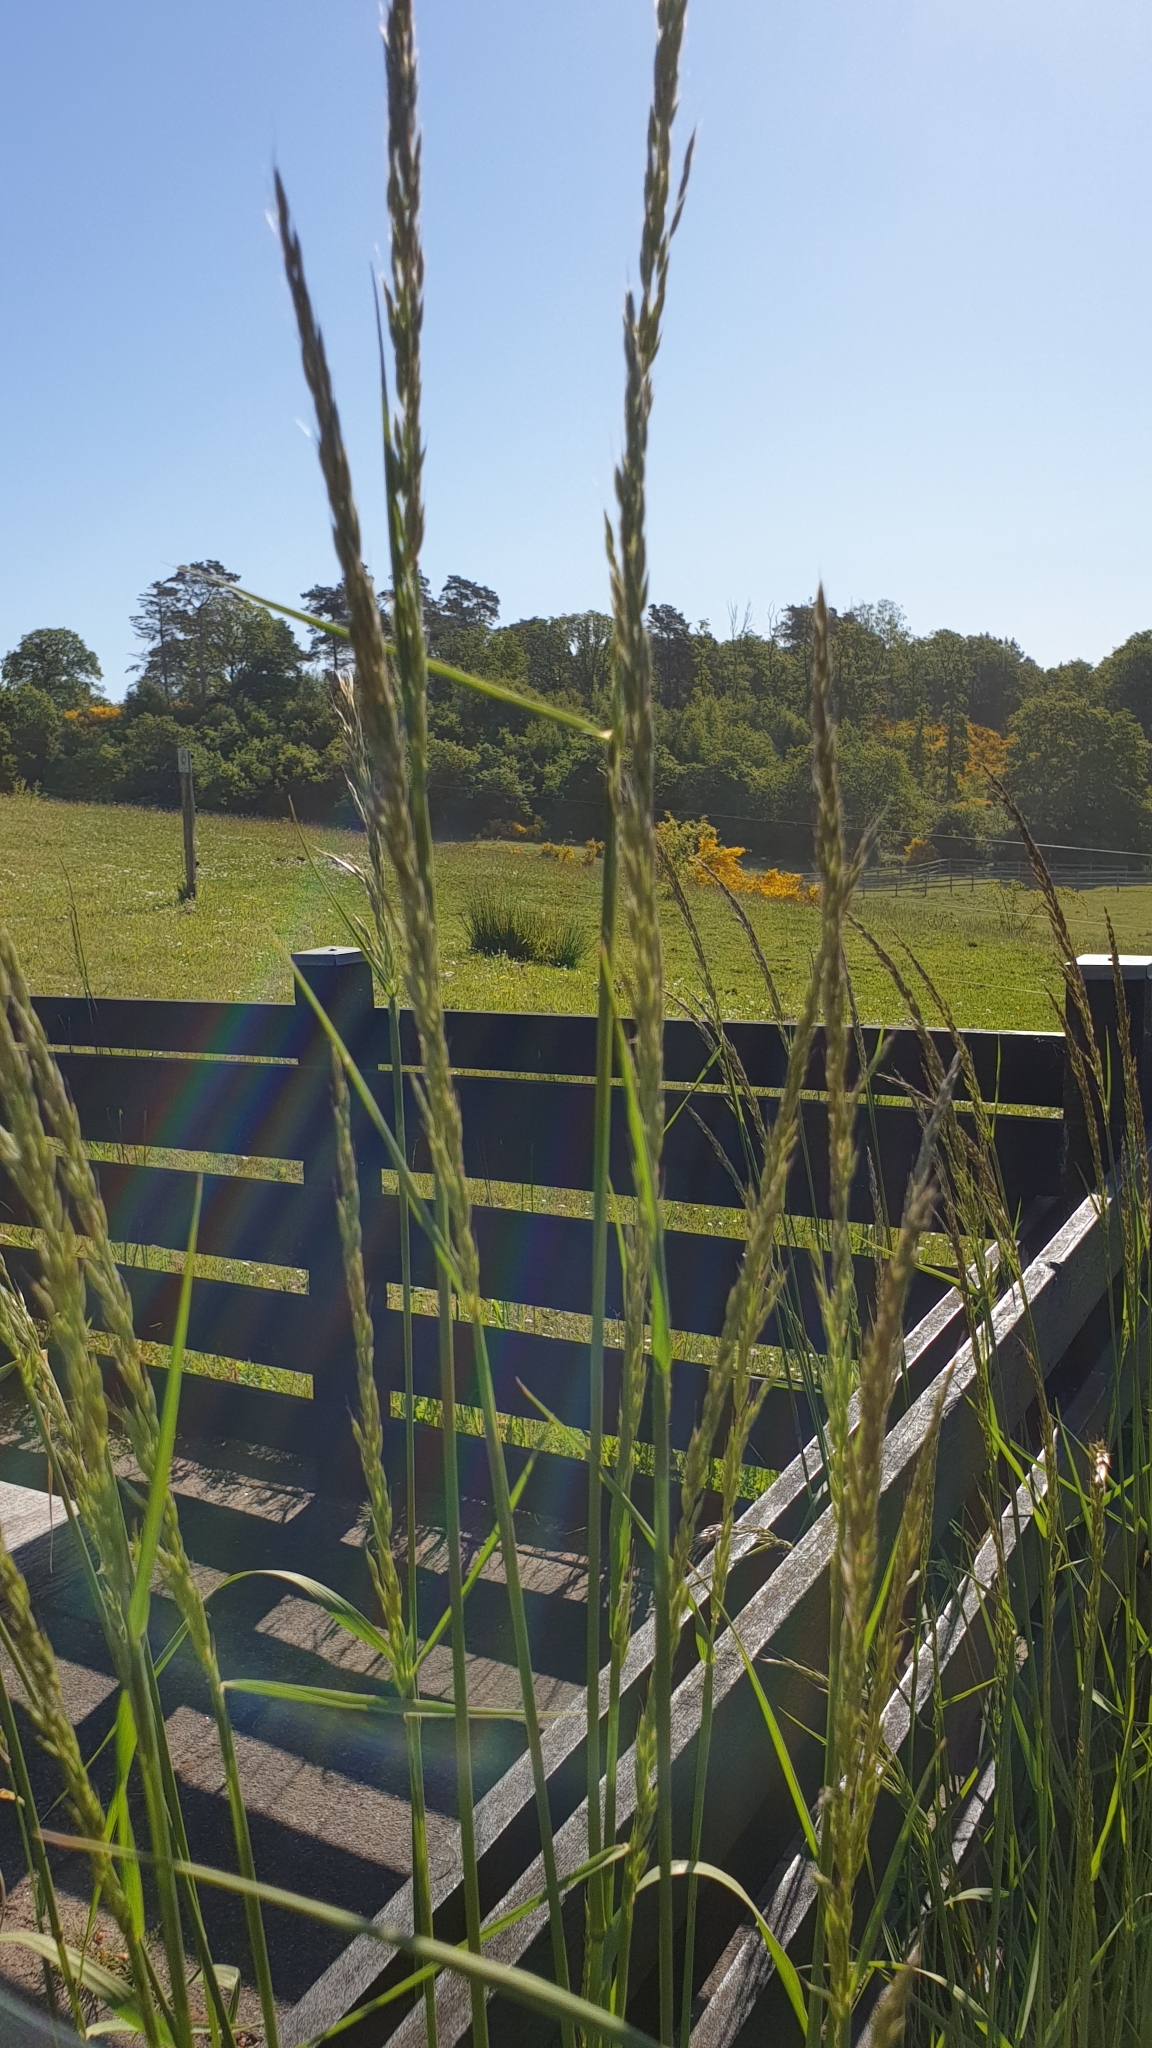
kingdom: Plantae
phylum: Tracheophyta
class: Liliopsida
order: Poales
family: Poaceae
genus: Arrhenatherum
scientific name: Arrhenatherum elatius
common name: Tall oatgrass
